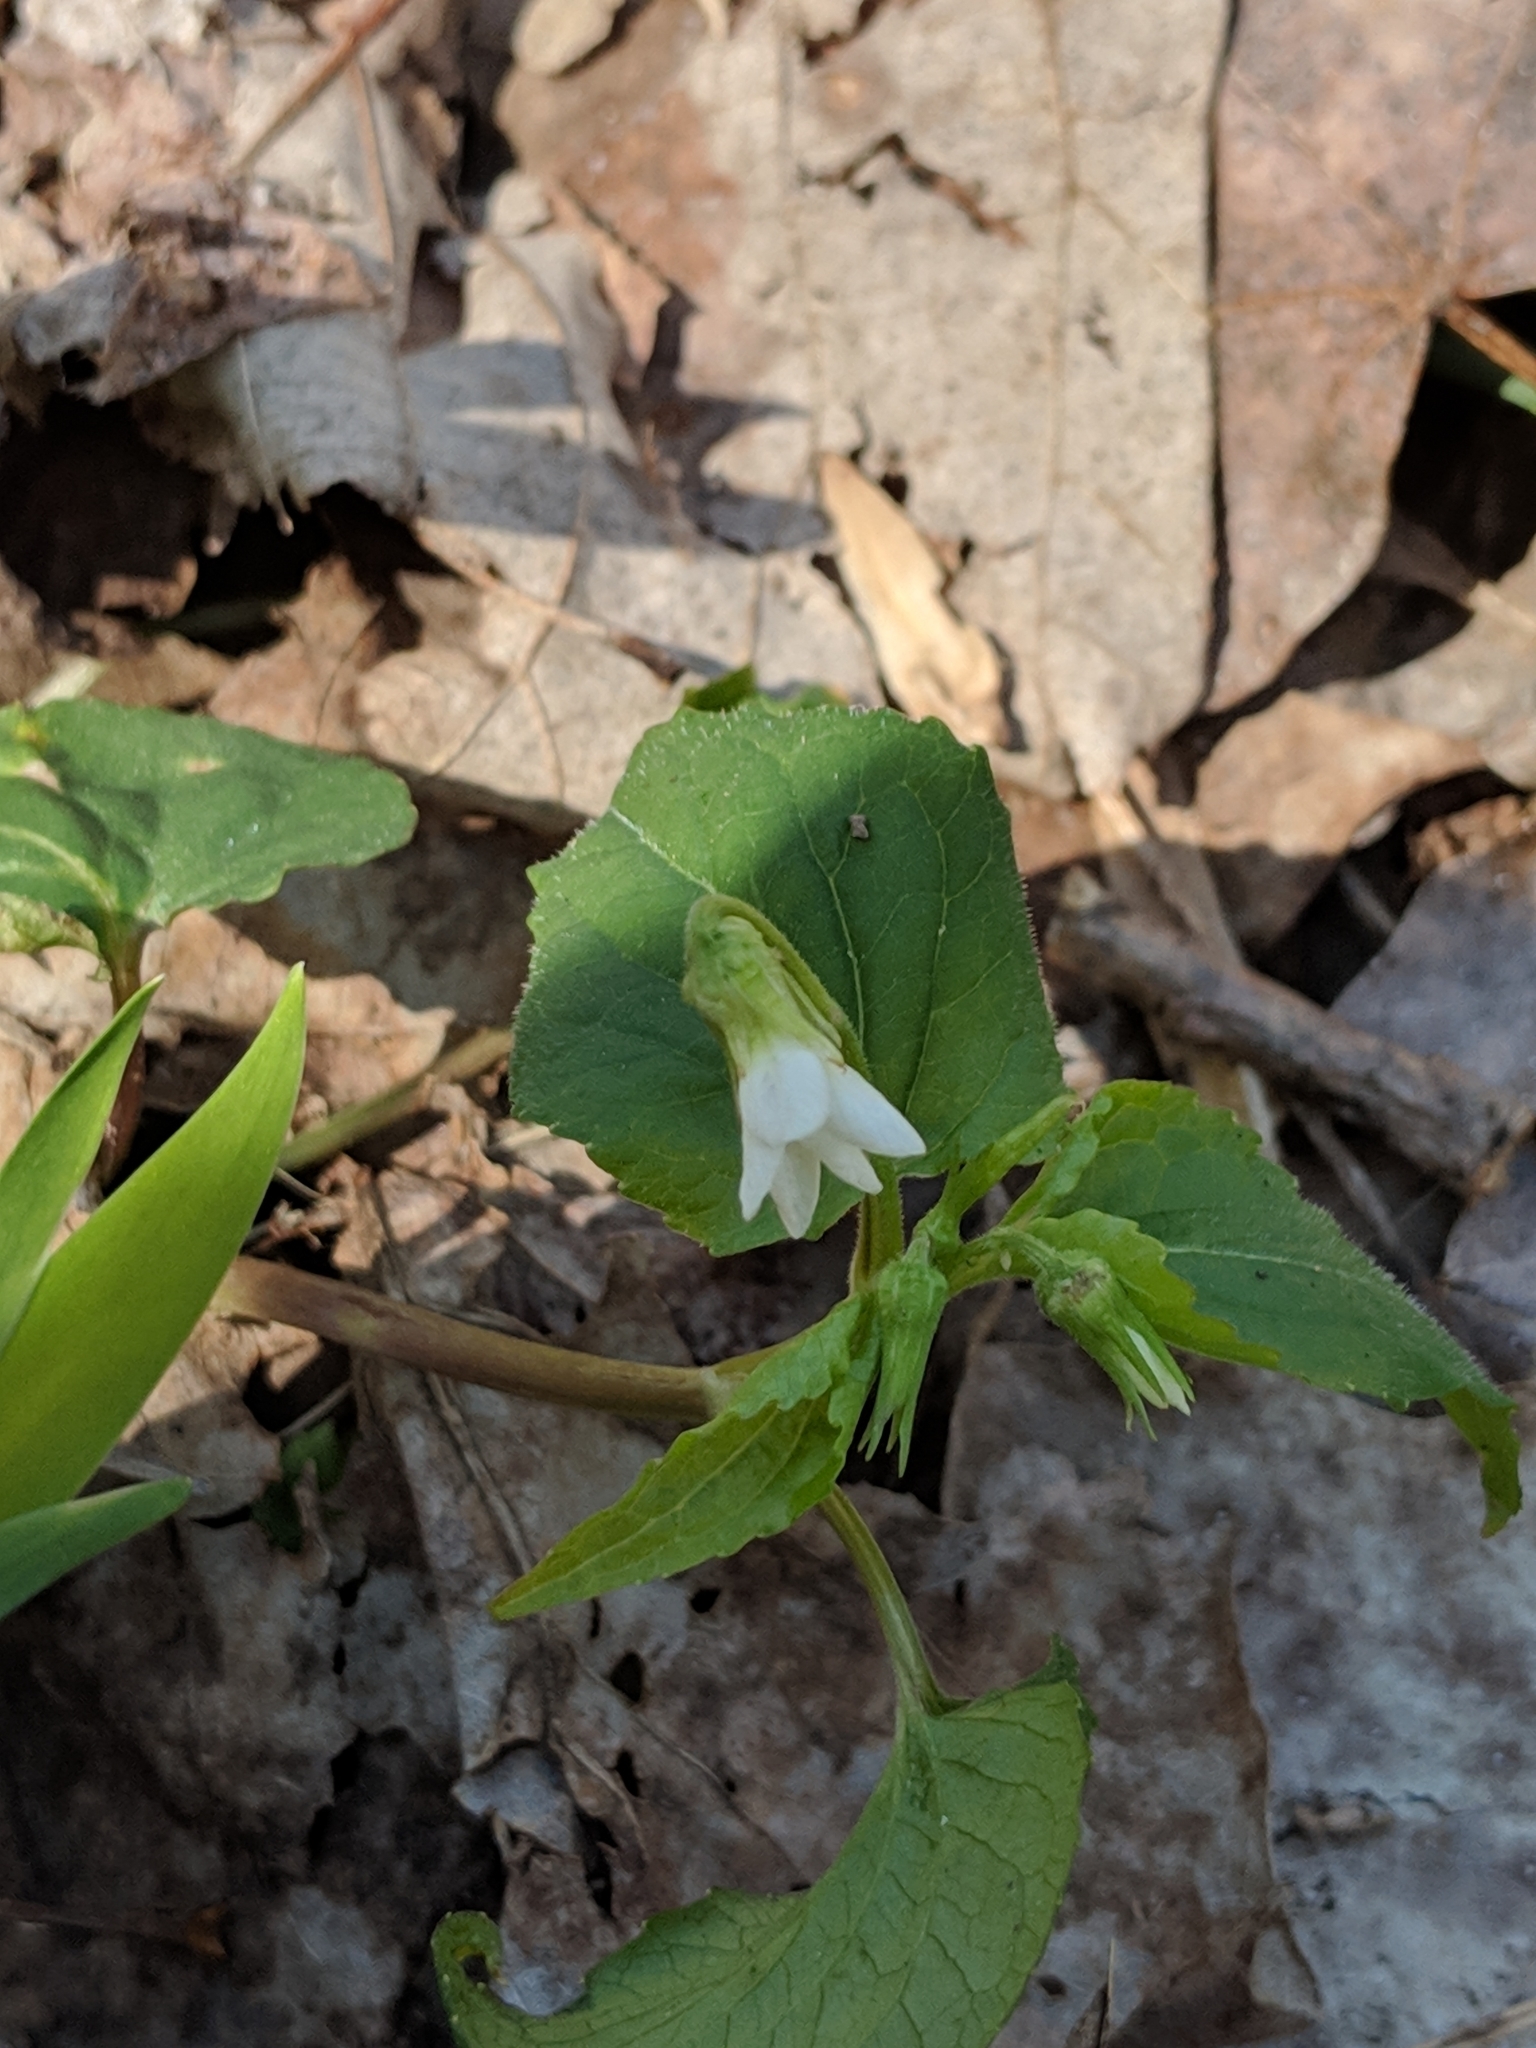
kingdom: Plantae
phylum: Tracheophyta
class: Magnoliopsida
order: Malpighiales
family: Violaceae
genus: Viola
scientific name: Viola canadensis
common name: Canada violet
